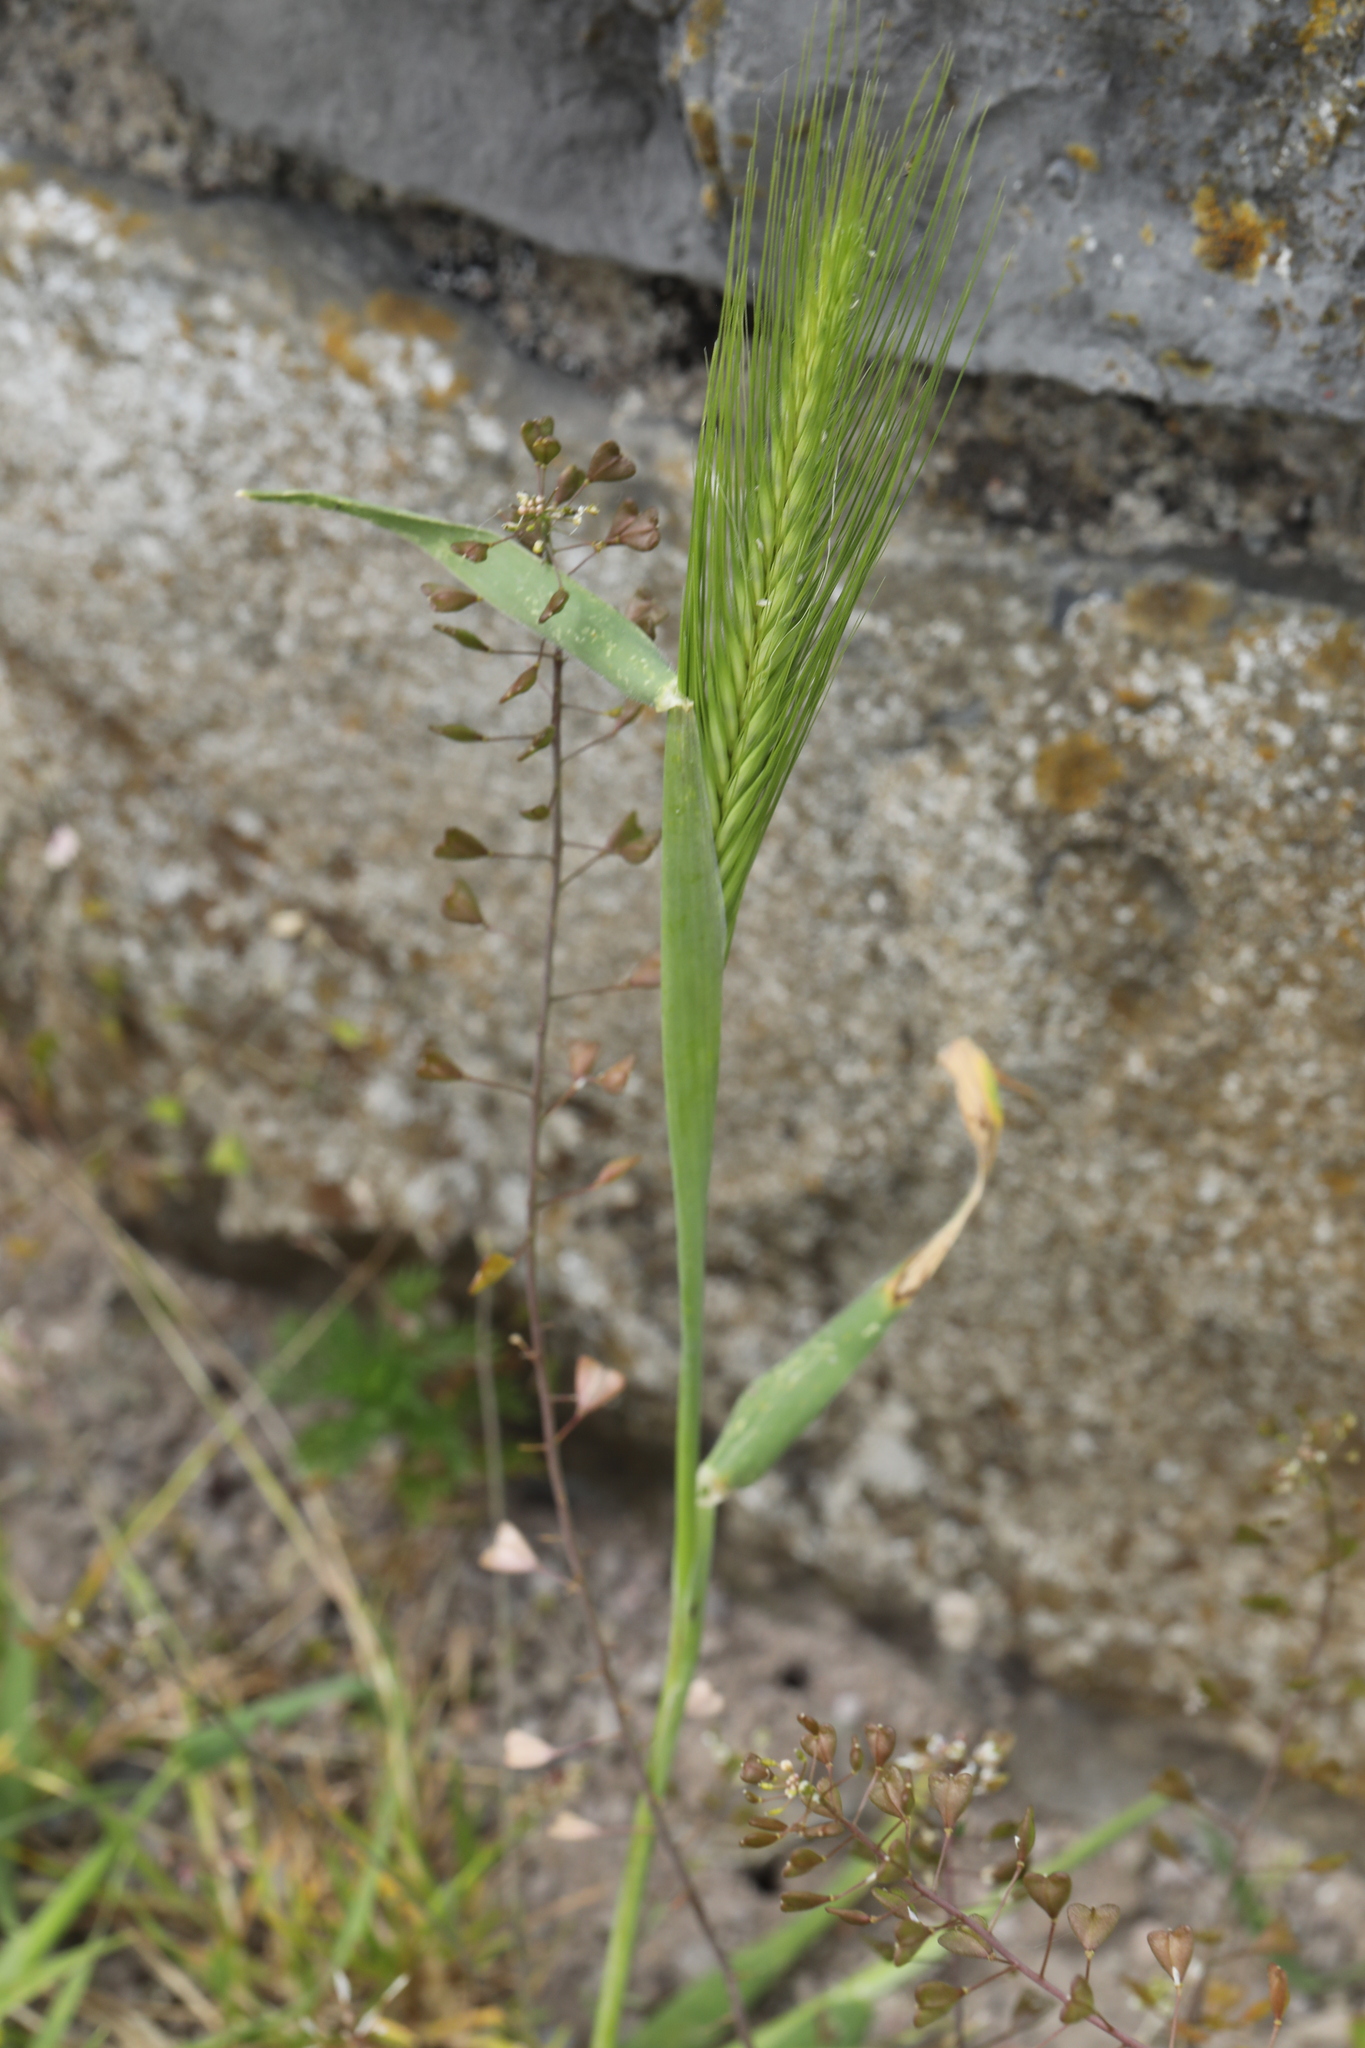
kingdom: Plantae
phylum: Tracheophyta
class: Liliopsida
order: Poales
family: Poaceae
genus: Hordeum
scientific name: Hordeum murinum
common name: Wall barley
